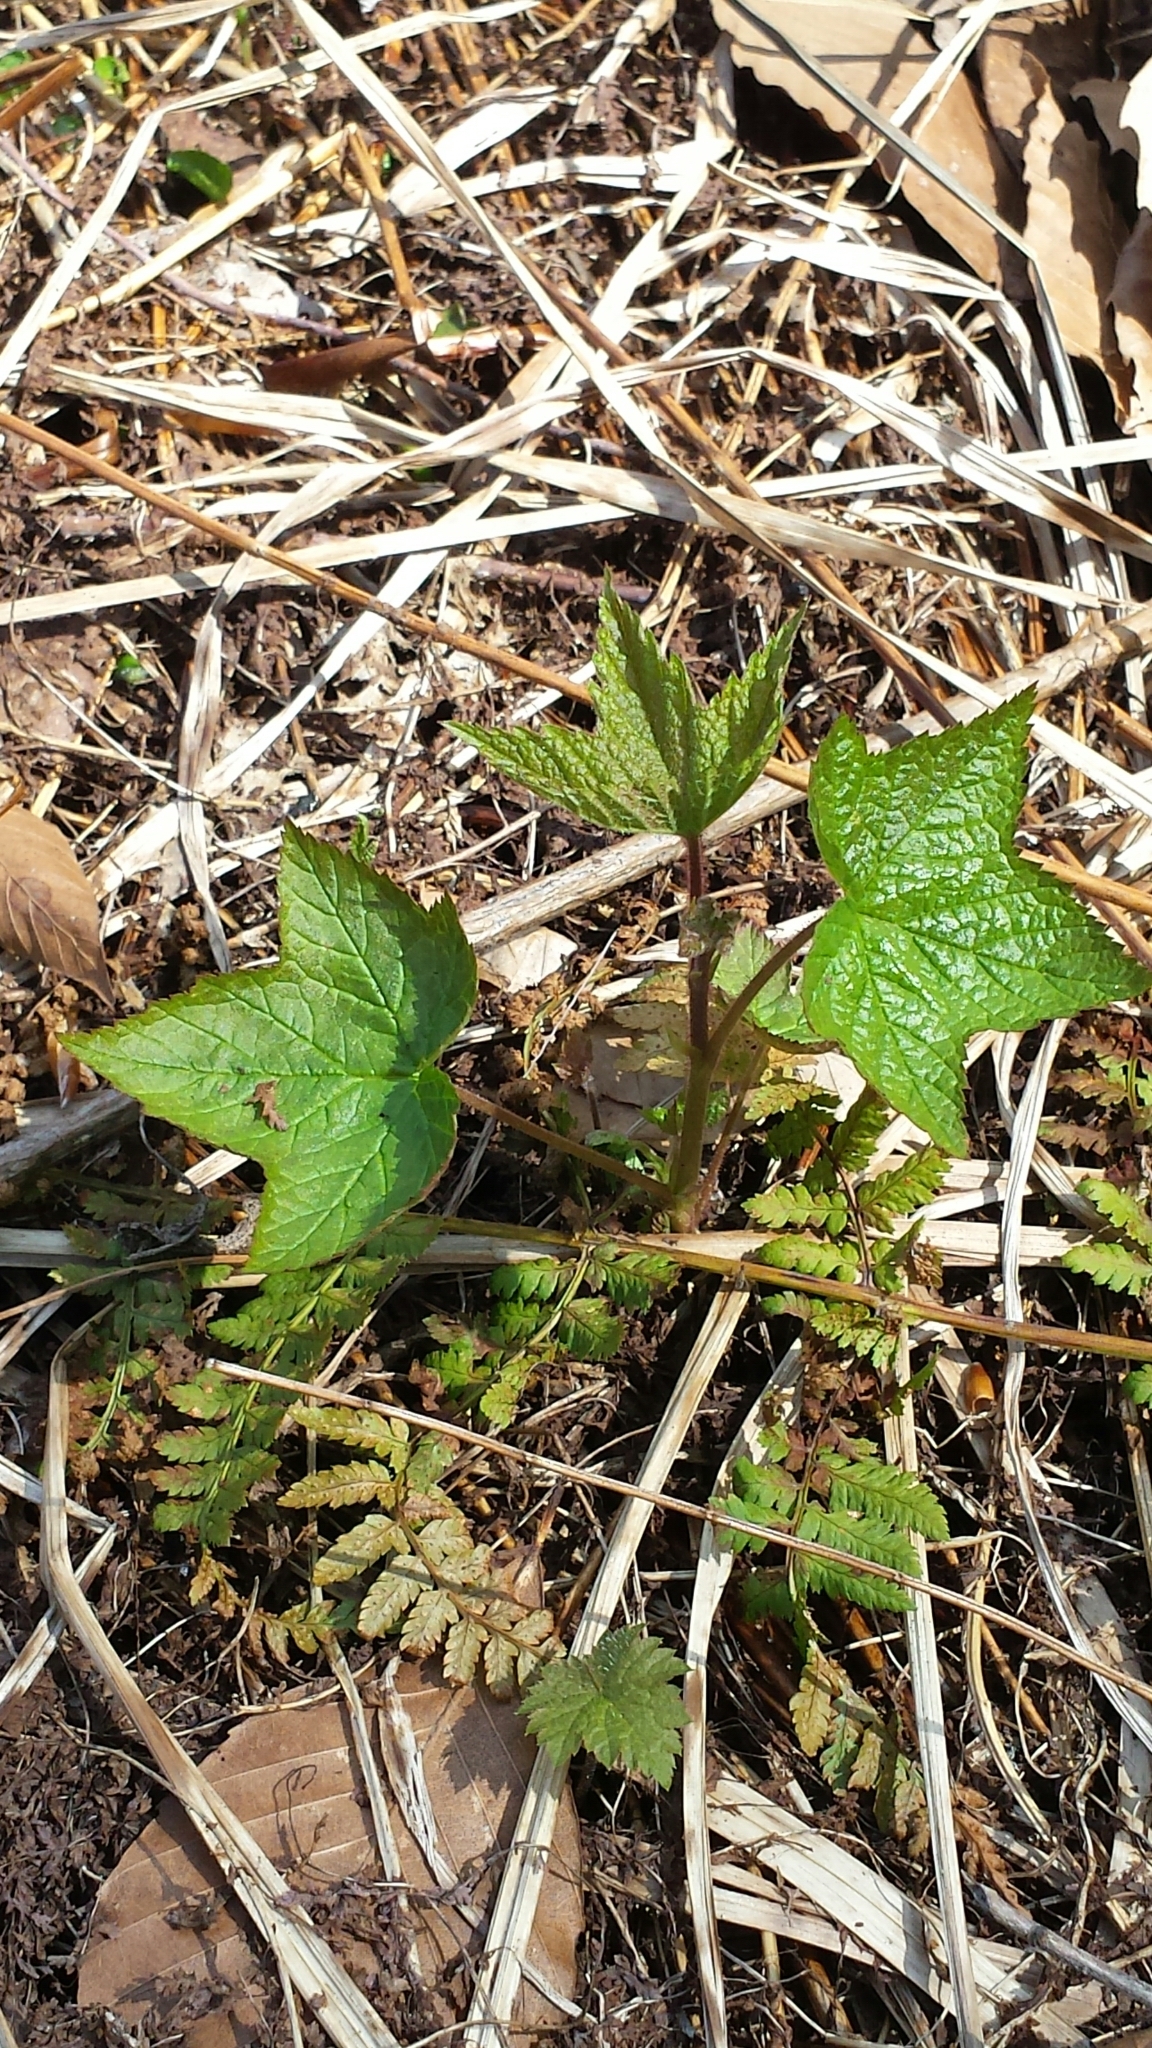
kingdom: Plantae
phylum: Tracheophyta
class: Magnoliopsida
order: Rosales
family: Rosaceae
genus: Rubus
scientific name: Rubus odoratus
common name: Purple-flowered raspberry
